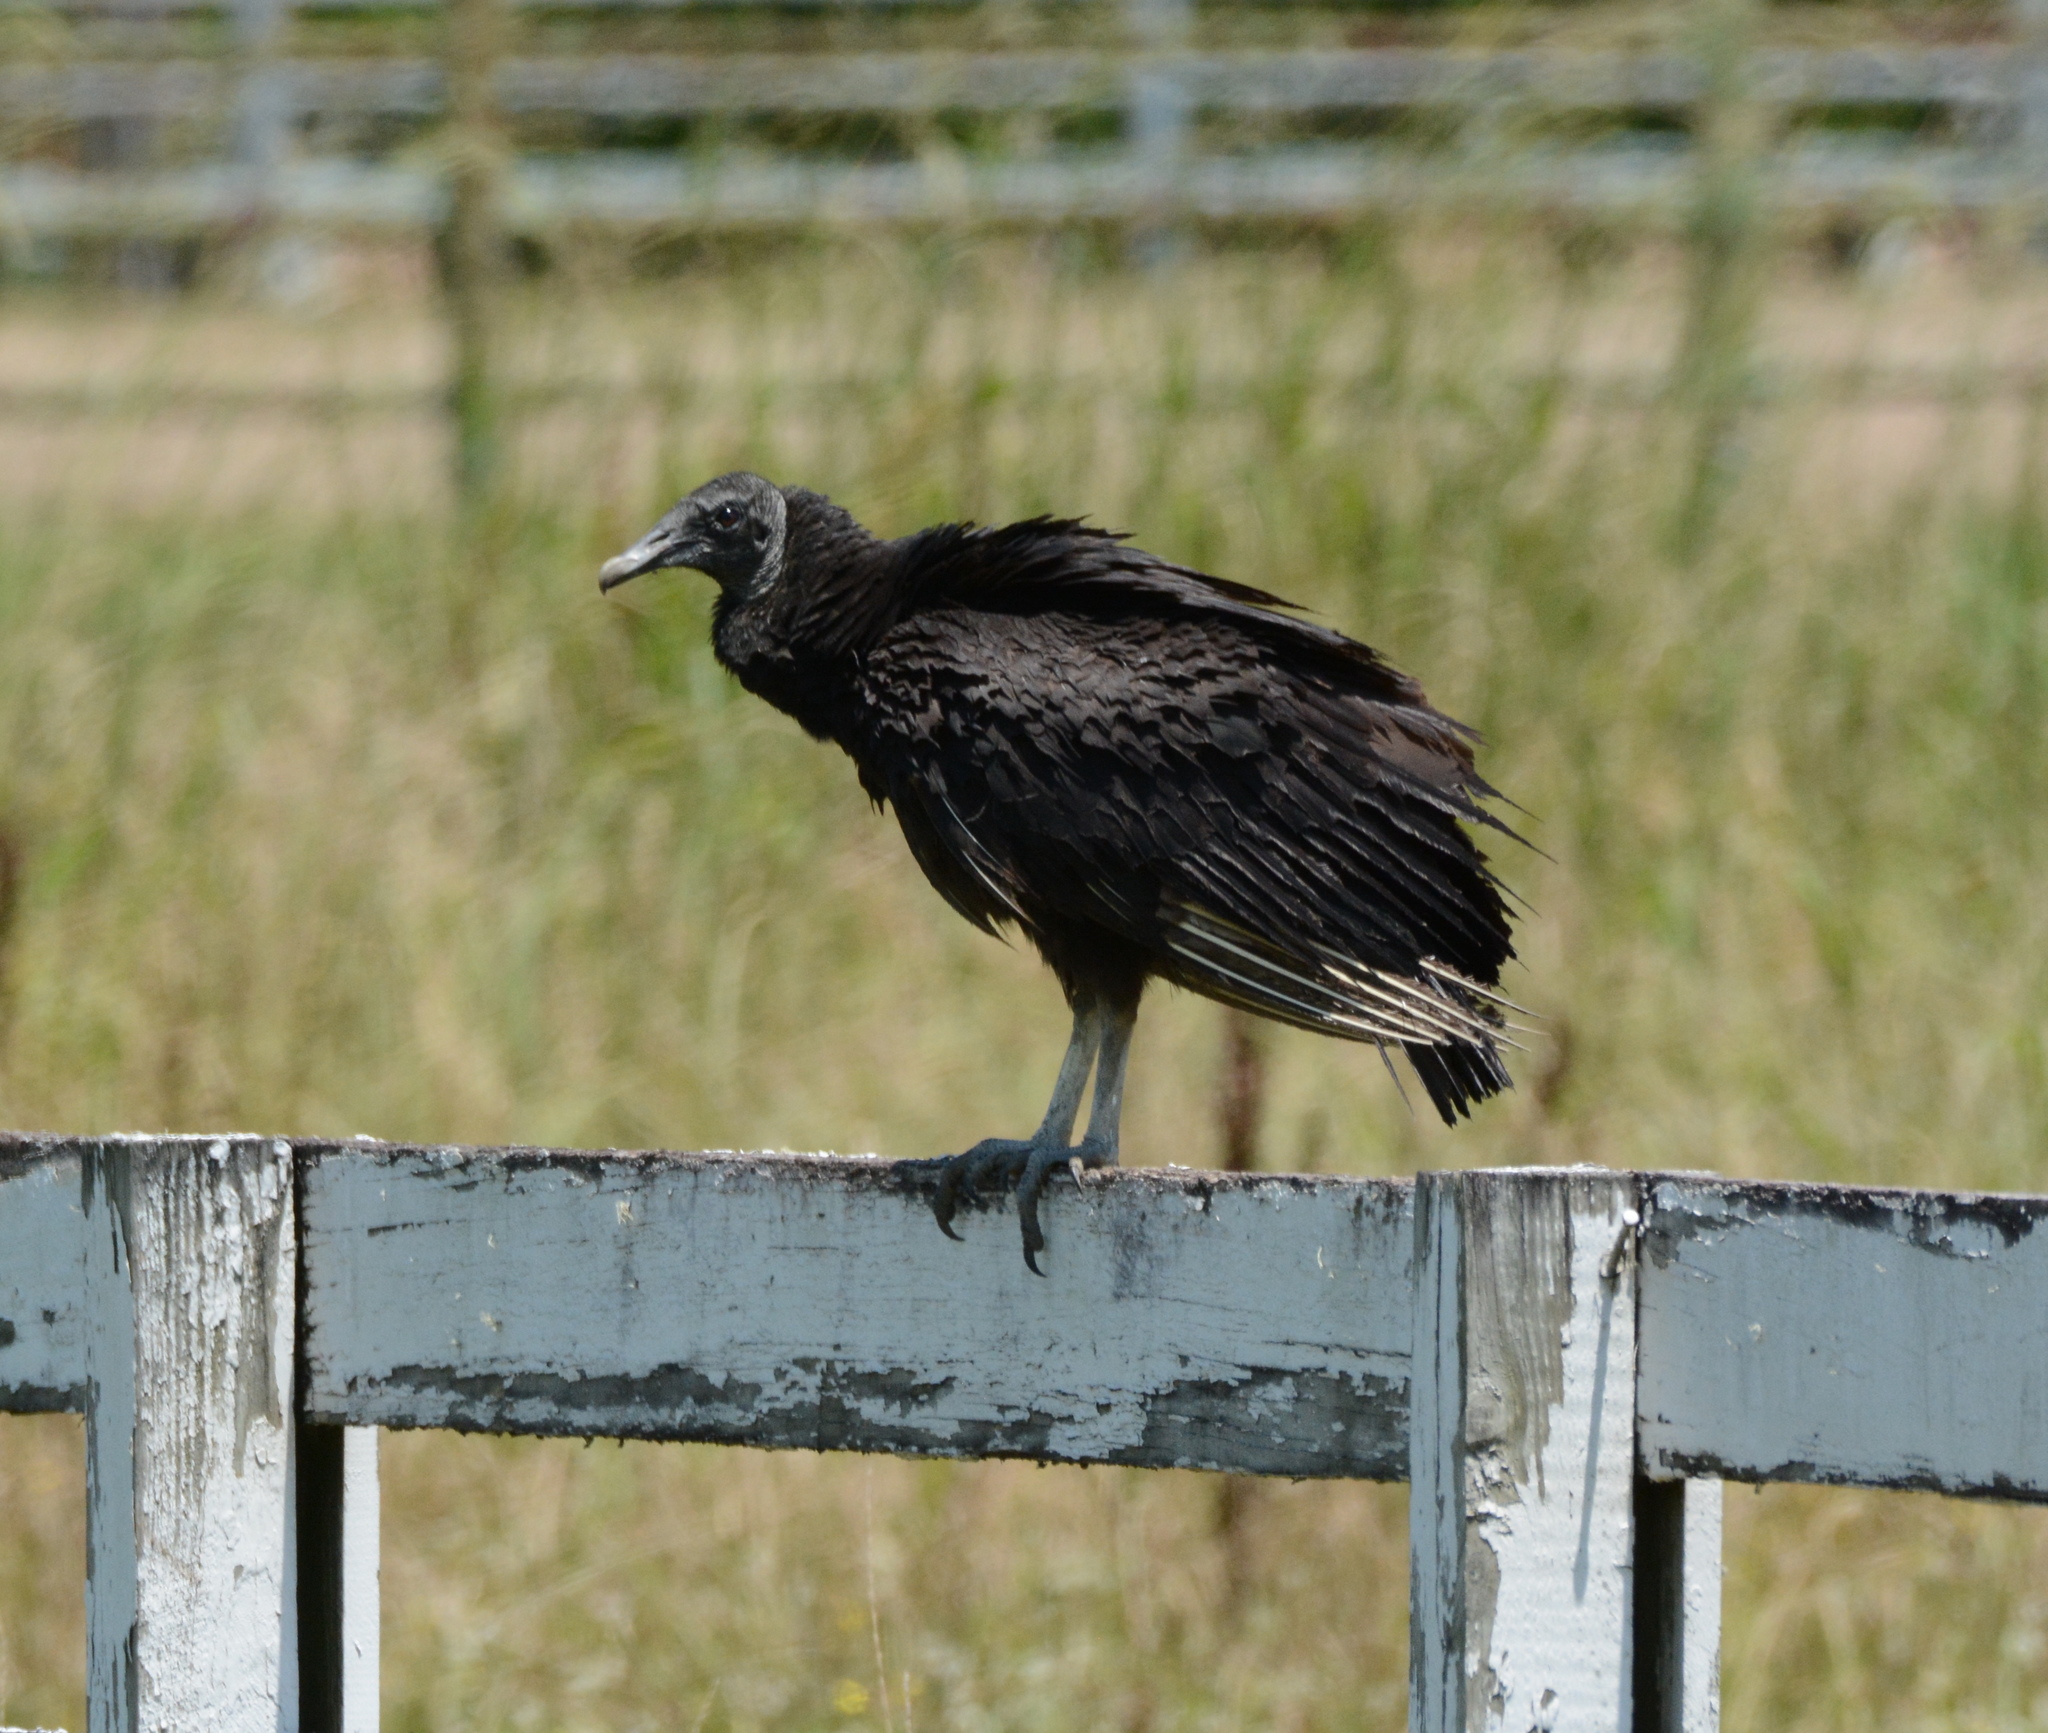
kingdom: Animalia
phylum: Chordata
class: Aves
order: Accipitriformes
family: Cathartidae
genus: Coragyps
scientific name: Coragyps atratus
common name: Black vulture
